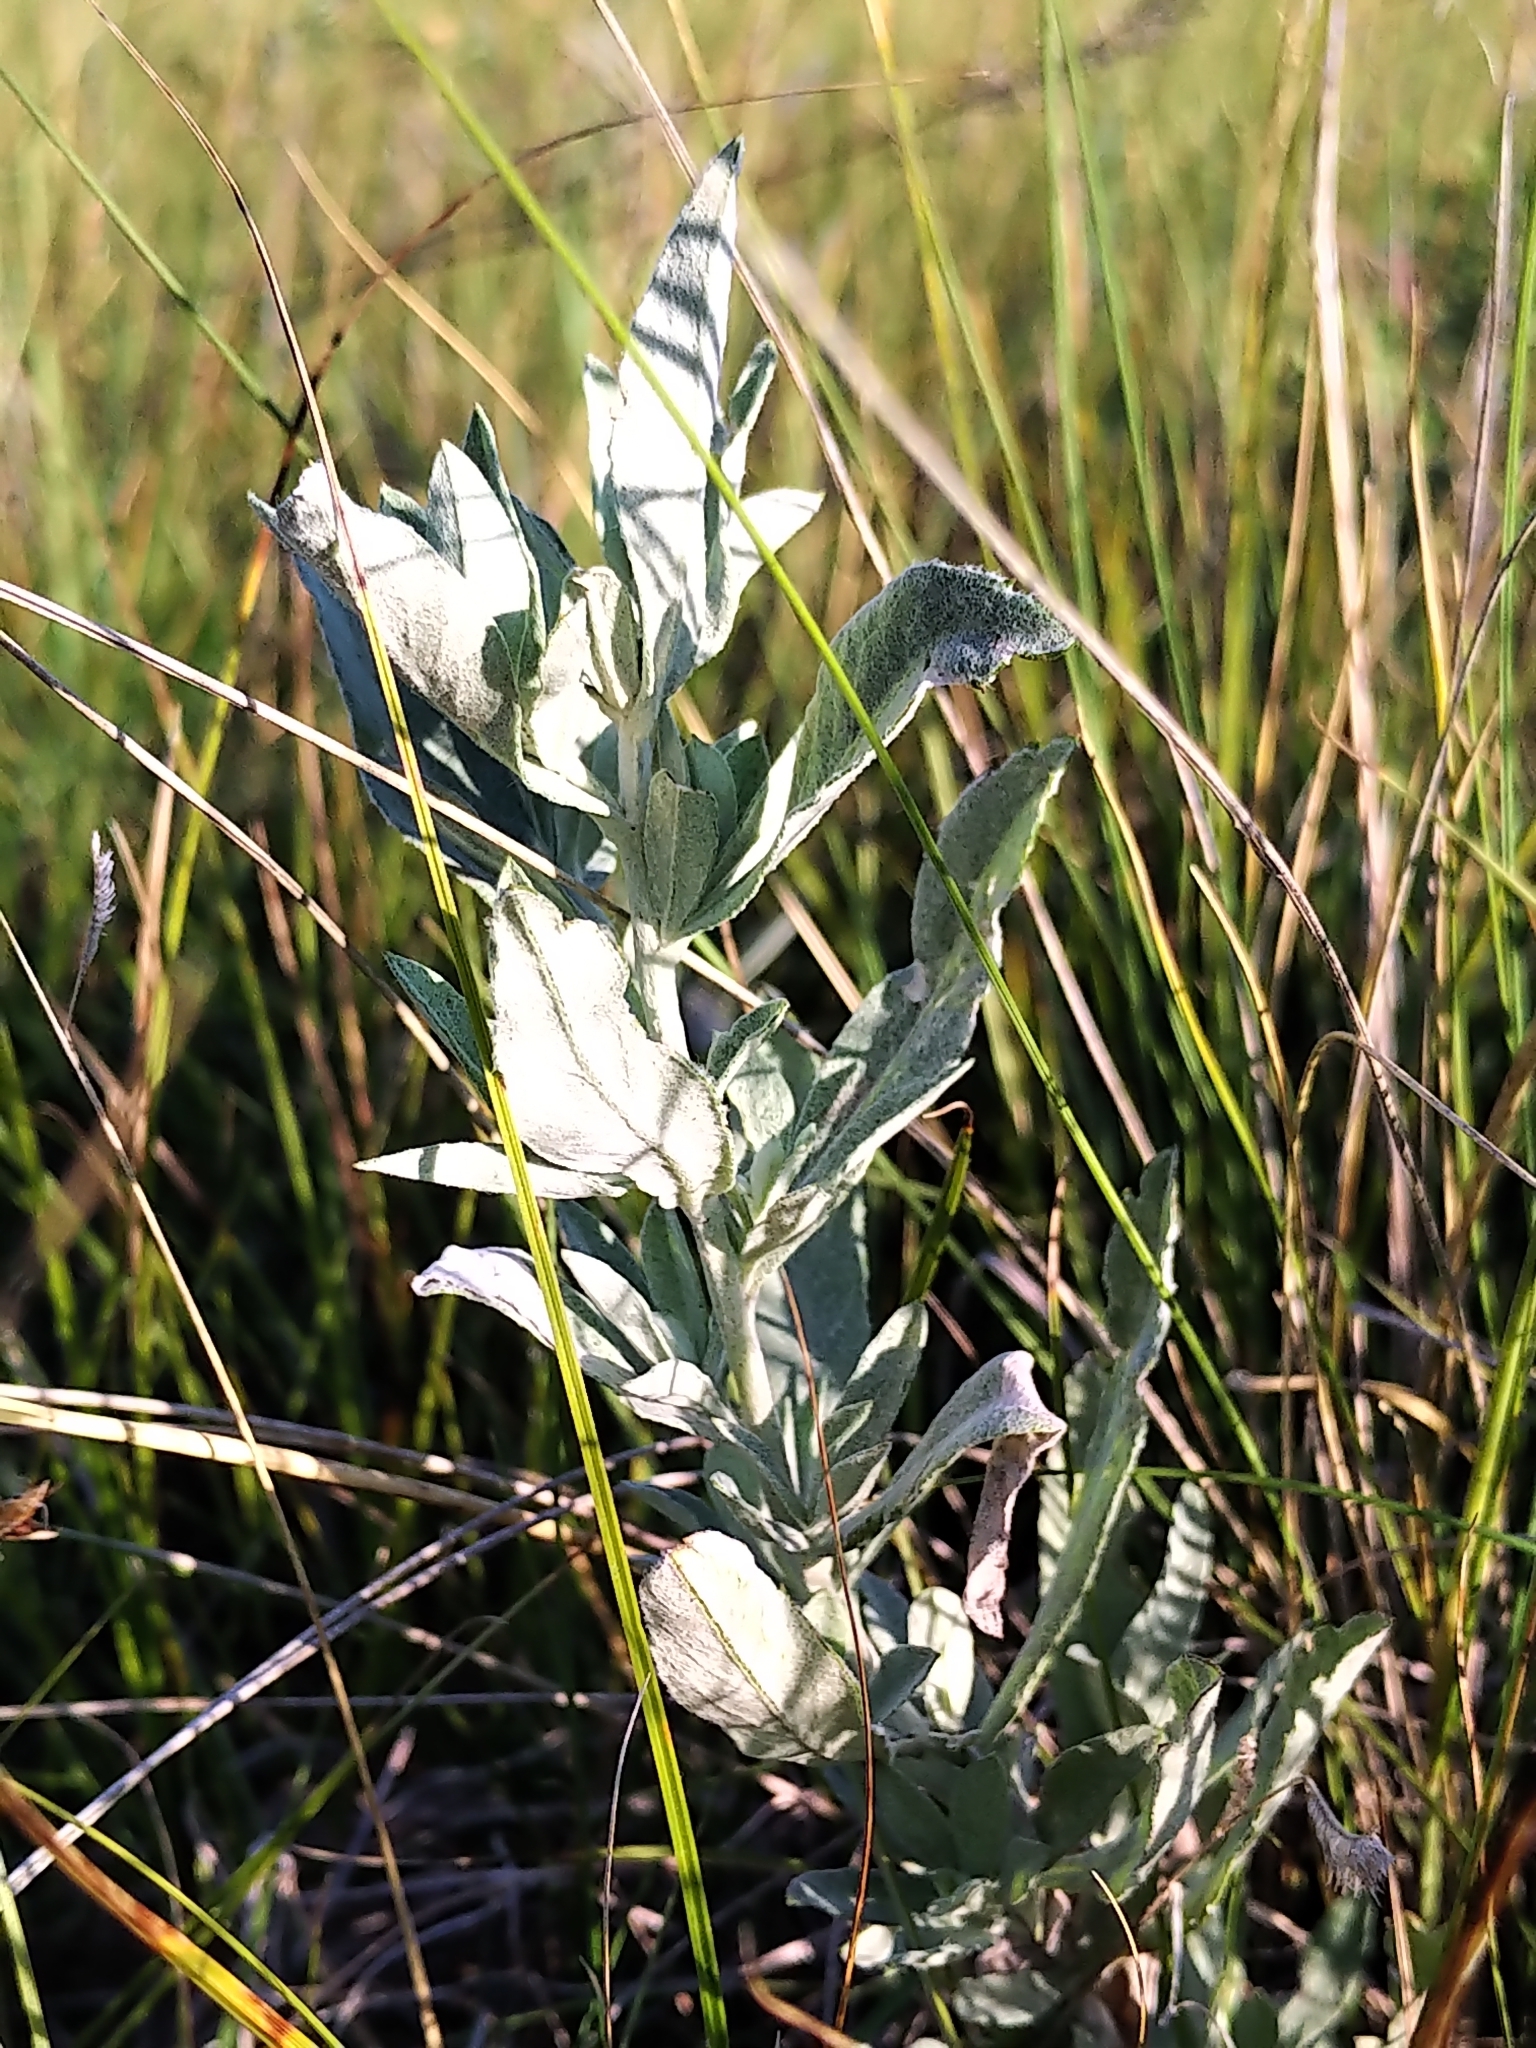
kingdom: Plantae
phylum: Tracheophyta
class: Magnoliopsida
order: Asterales
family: Asteraceae
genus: Artemisia
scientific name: Artemisia ludoviciana
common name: Western mugwort
